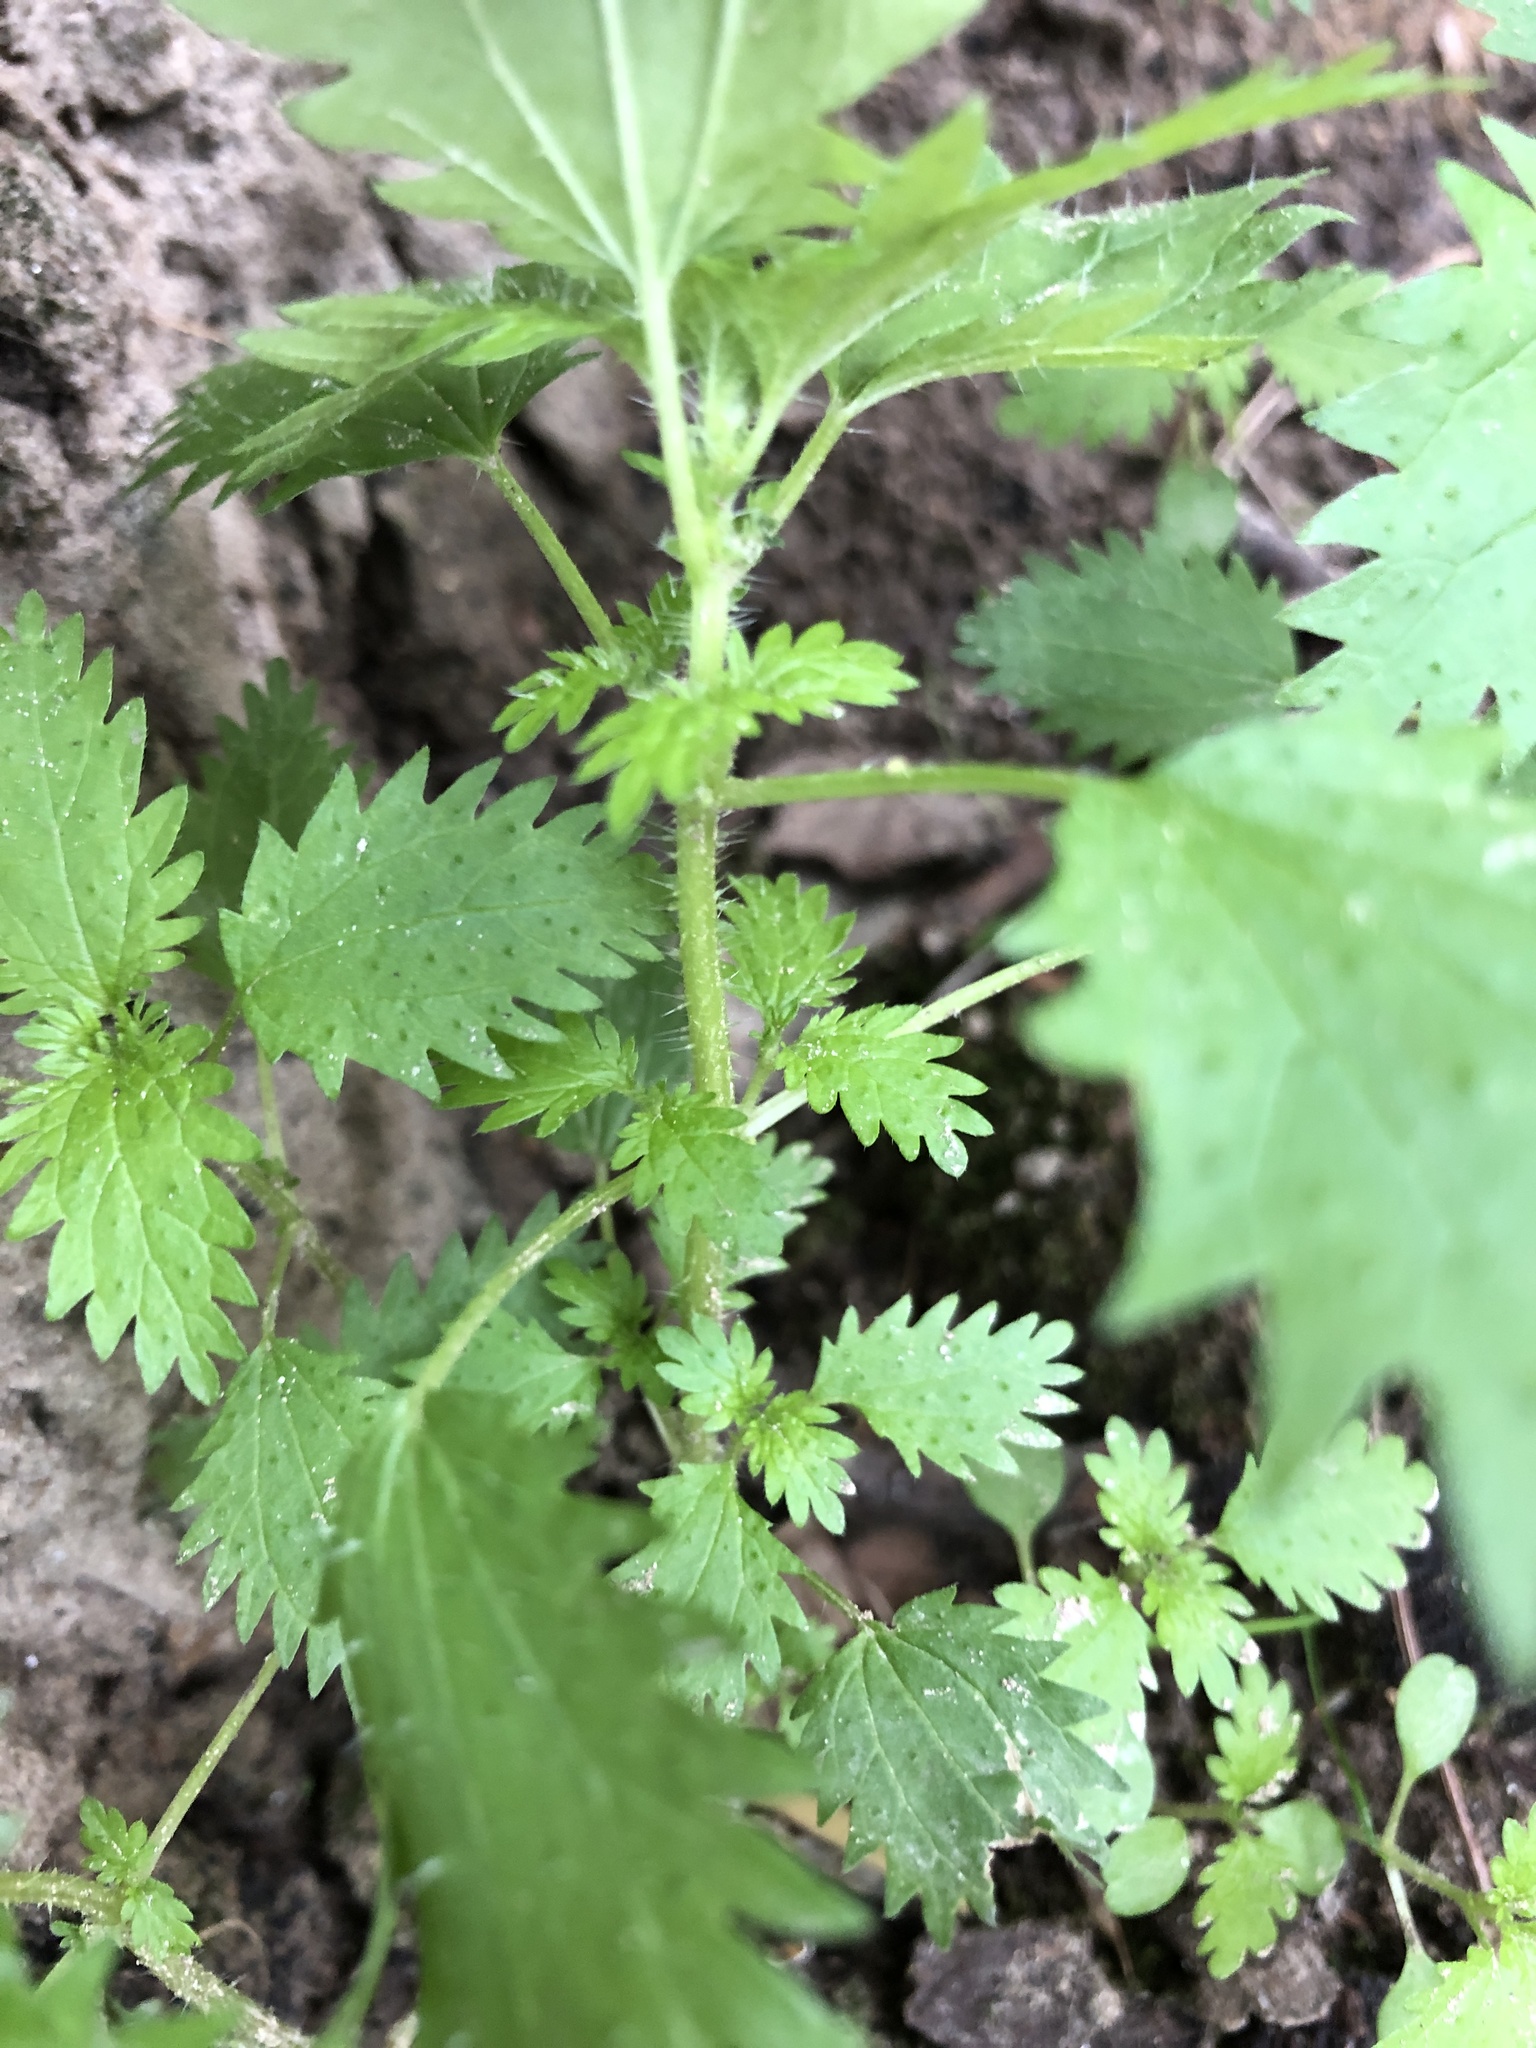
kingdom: Plantae
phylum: Tracheophyta
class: Magnoliopsida
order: Rosales
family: Urticaceae
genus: Urtica
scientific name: Urtica urens
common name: Dwarf nettle
